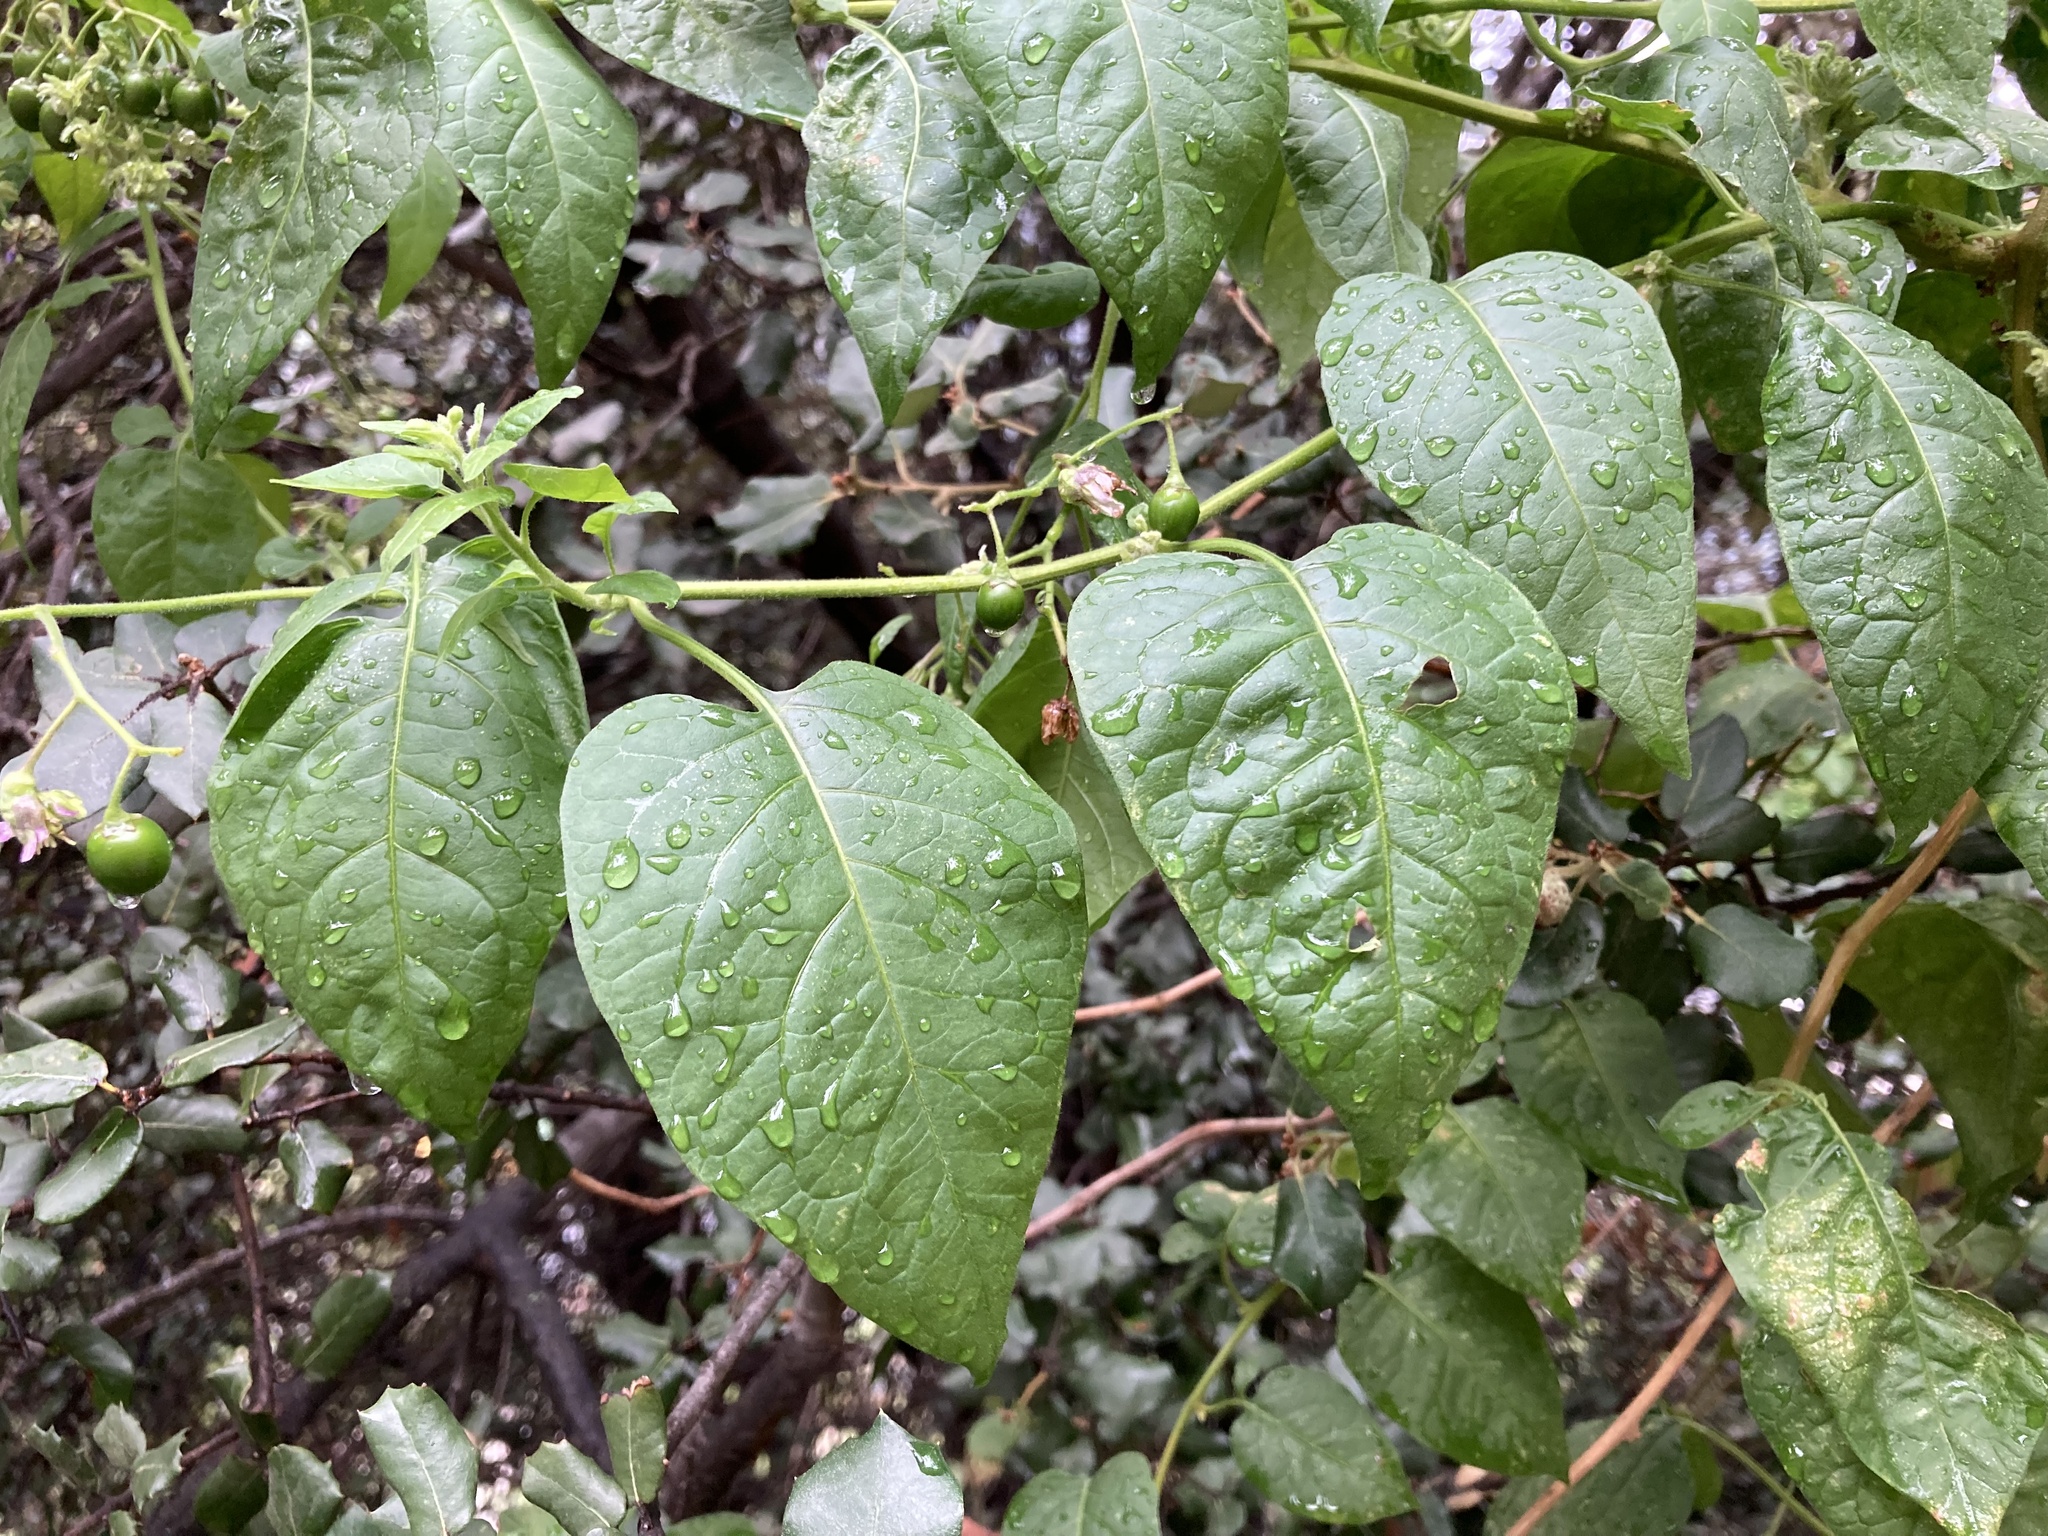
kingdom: Plantae
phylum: Tracheophyta
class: Magnoliopsida
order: Solanales
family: Solanaceae
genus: Solanum
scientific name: Solanum dulcamara
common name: Climbing nightshade
